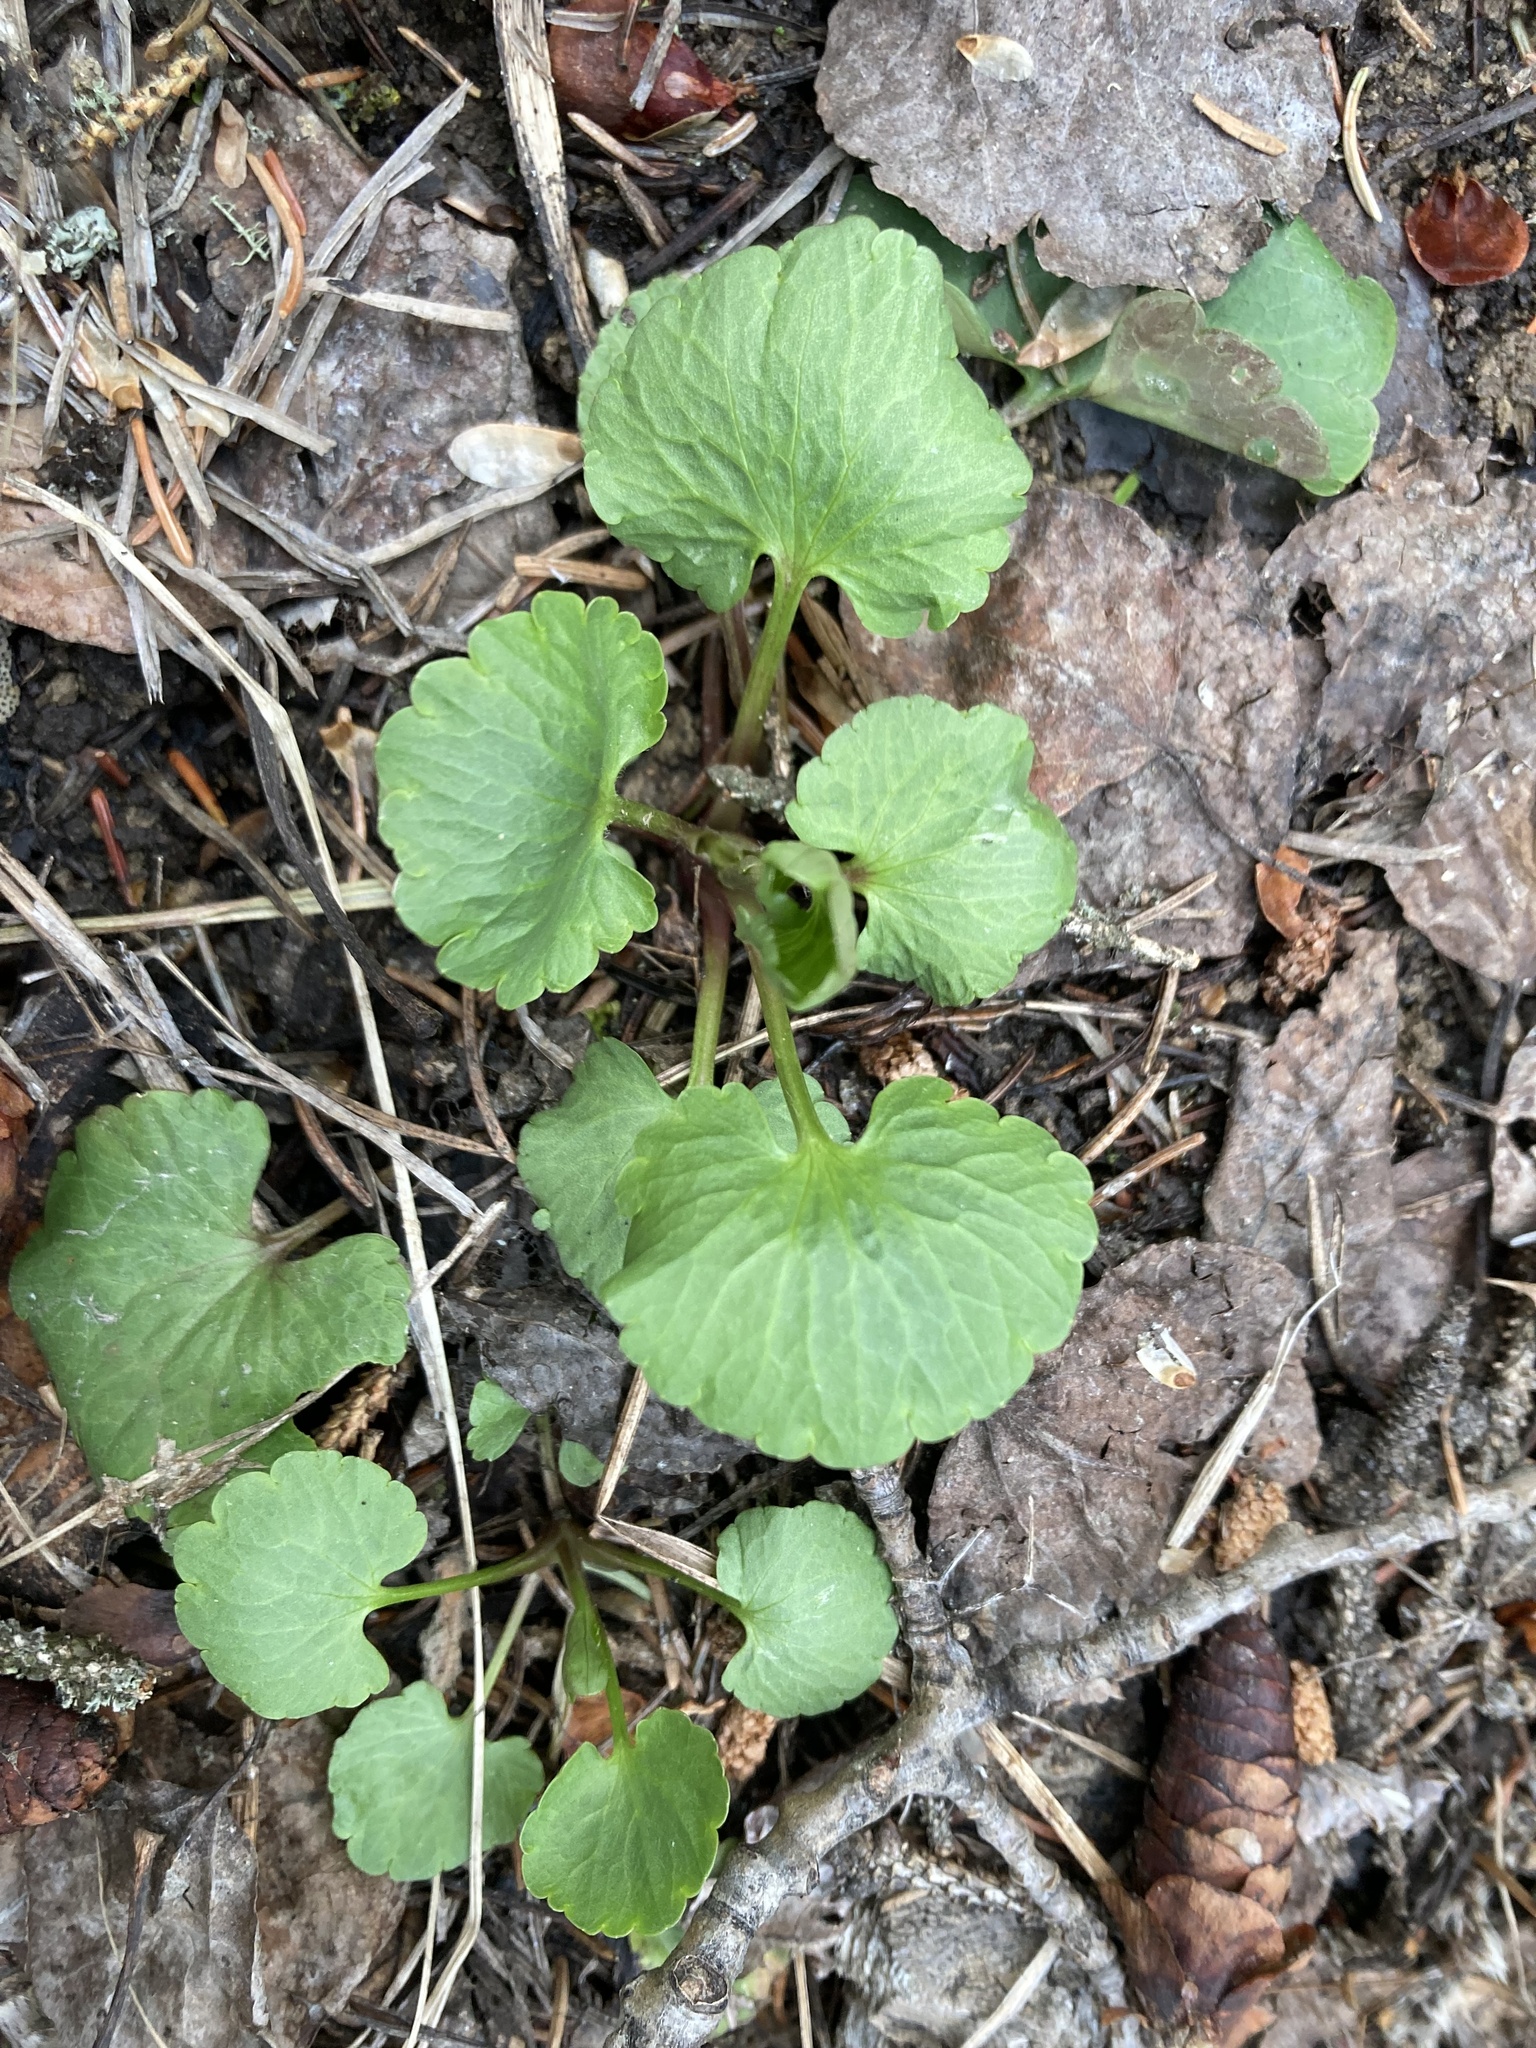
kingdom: Plantae
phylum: Tracheophyta
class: Magnoliopsida
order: Ranunculales
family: Ranunculaceae
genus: Ranunculus
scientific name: Ranunculus abortivus
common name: Early wood buttercup
